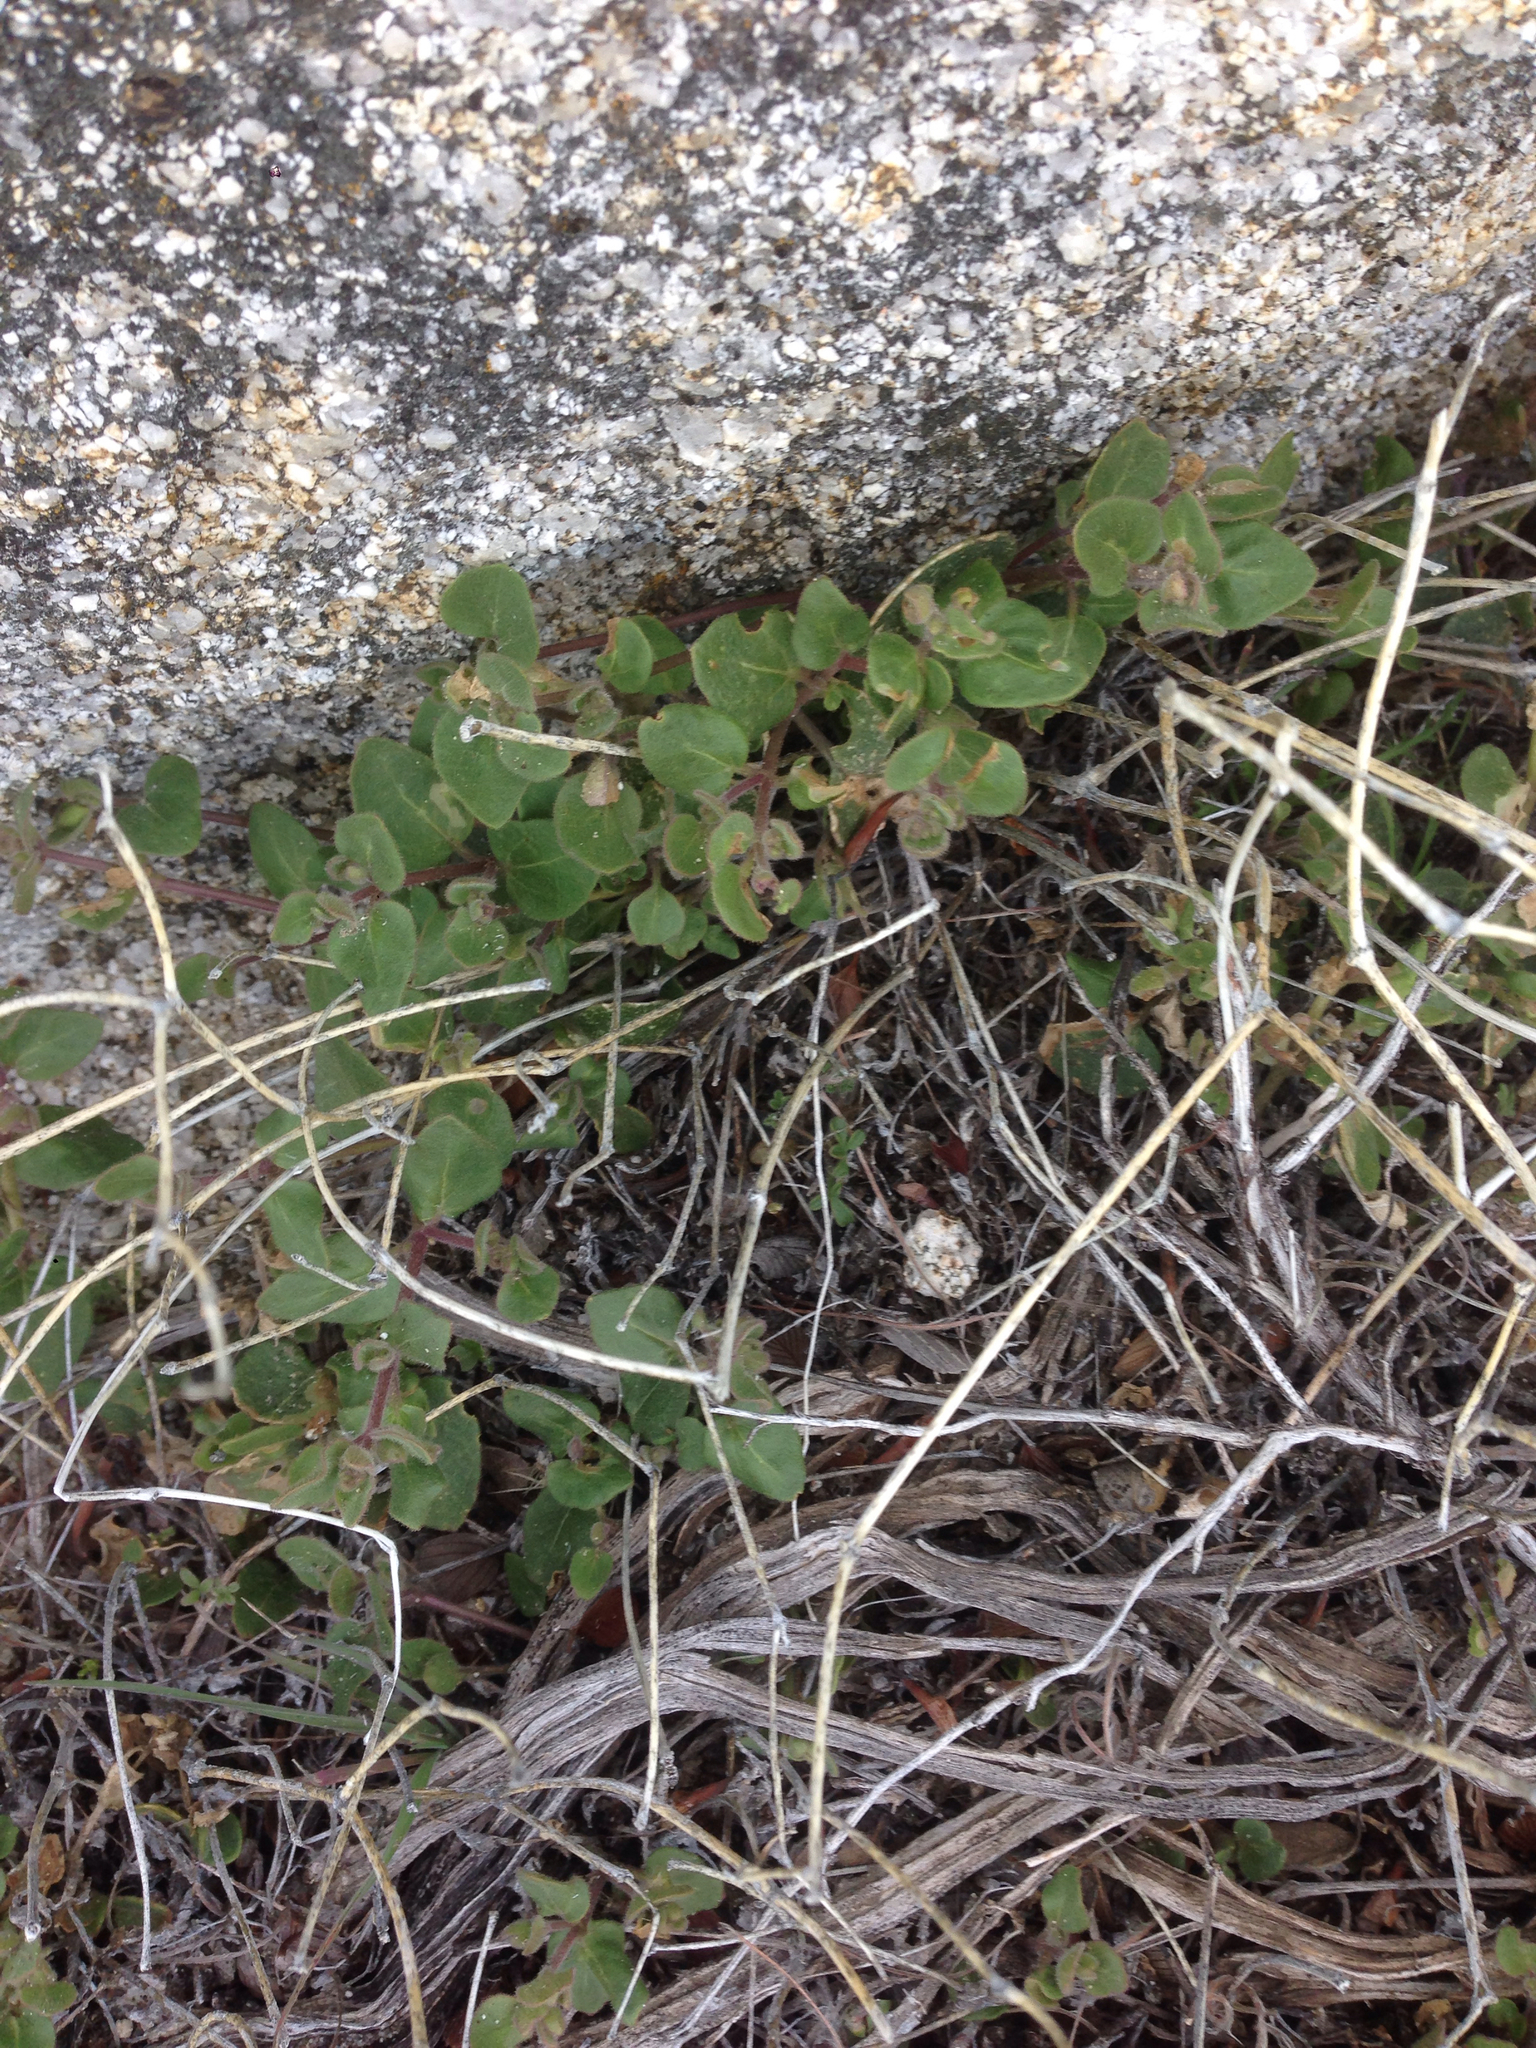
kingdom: Plantae
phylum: Tracheophyta
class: Magnoliopsida
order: Caryophyllales
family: Nyctaginaceae
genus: Mirabilis
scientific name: Mirabilis laevis
